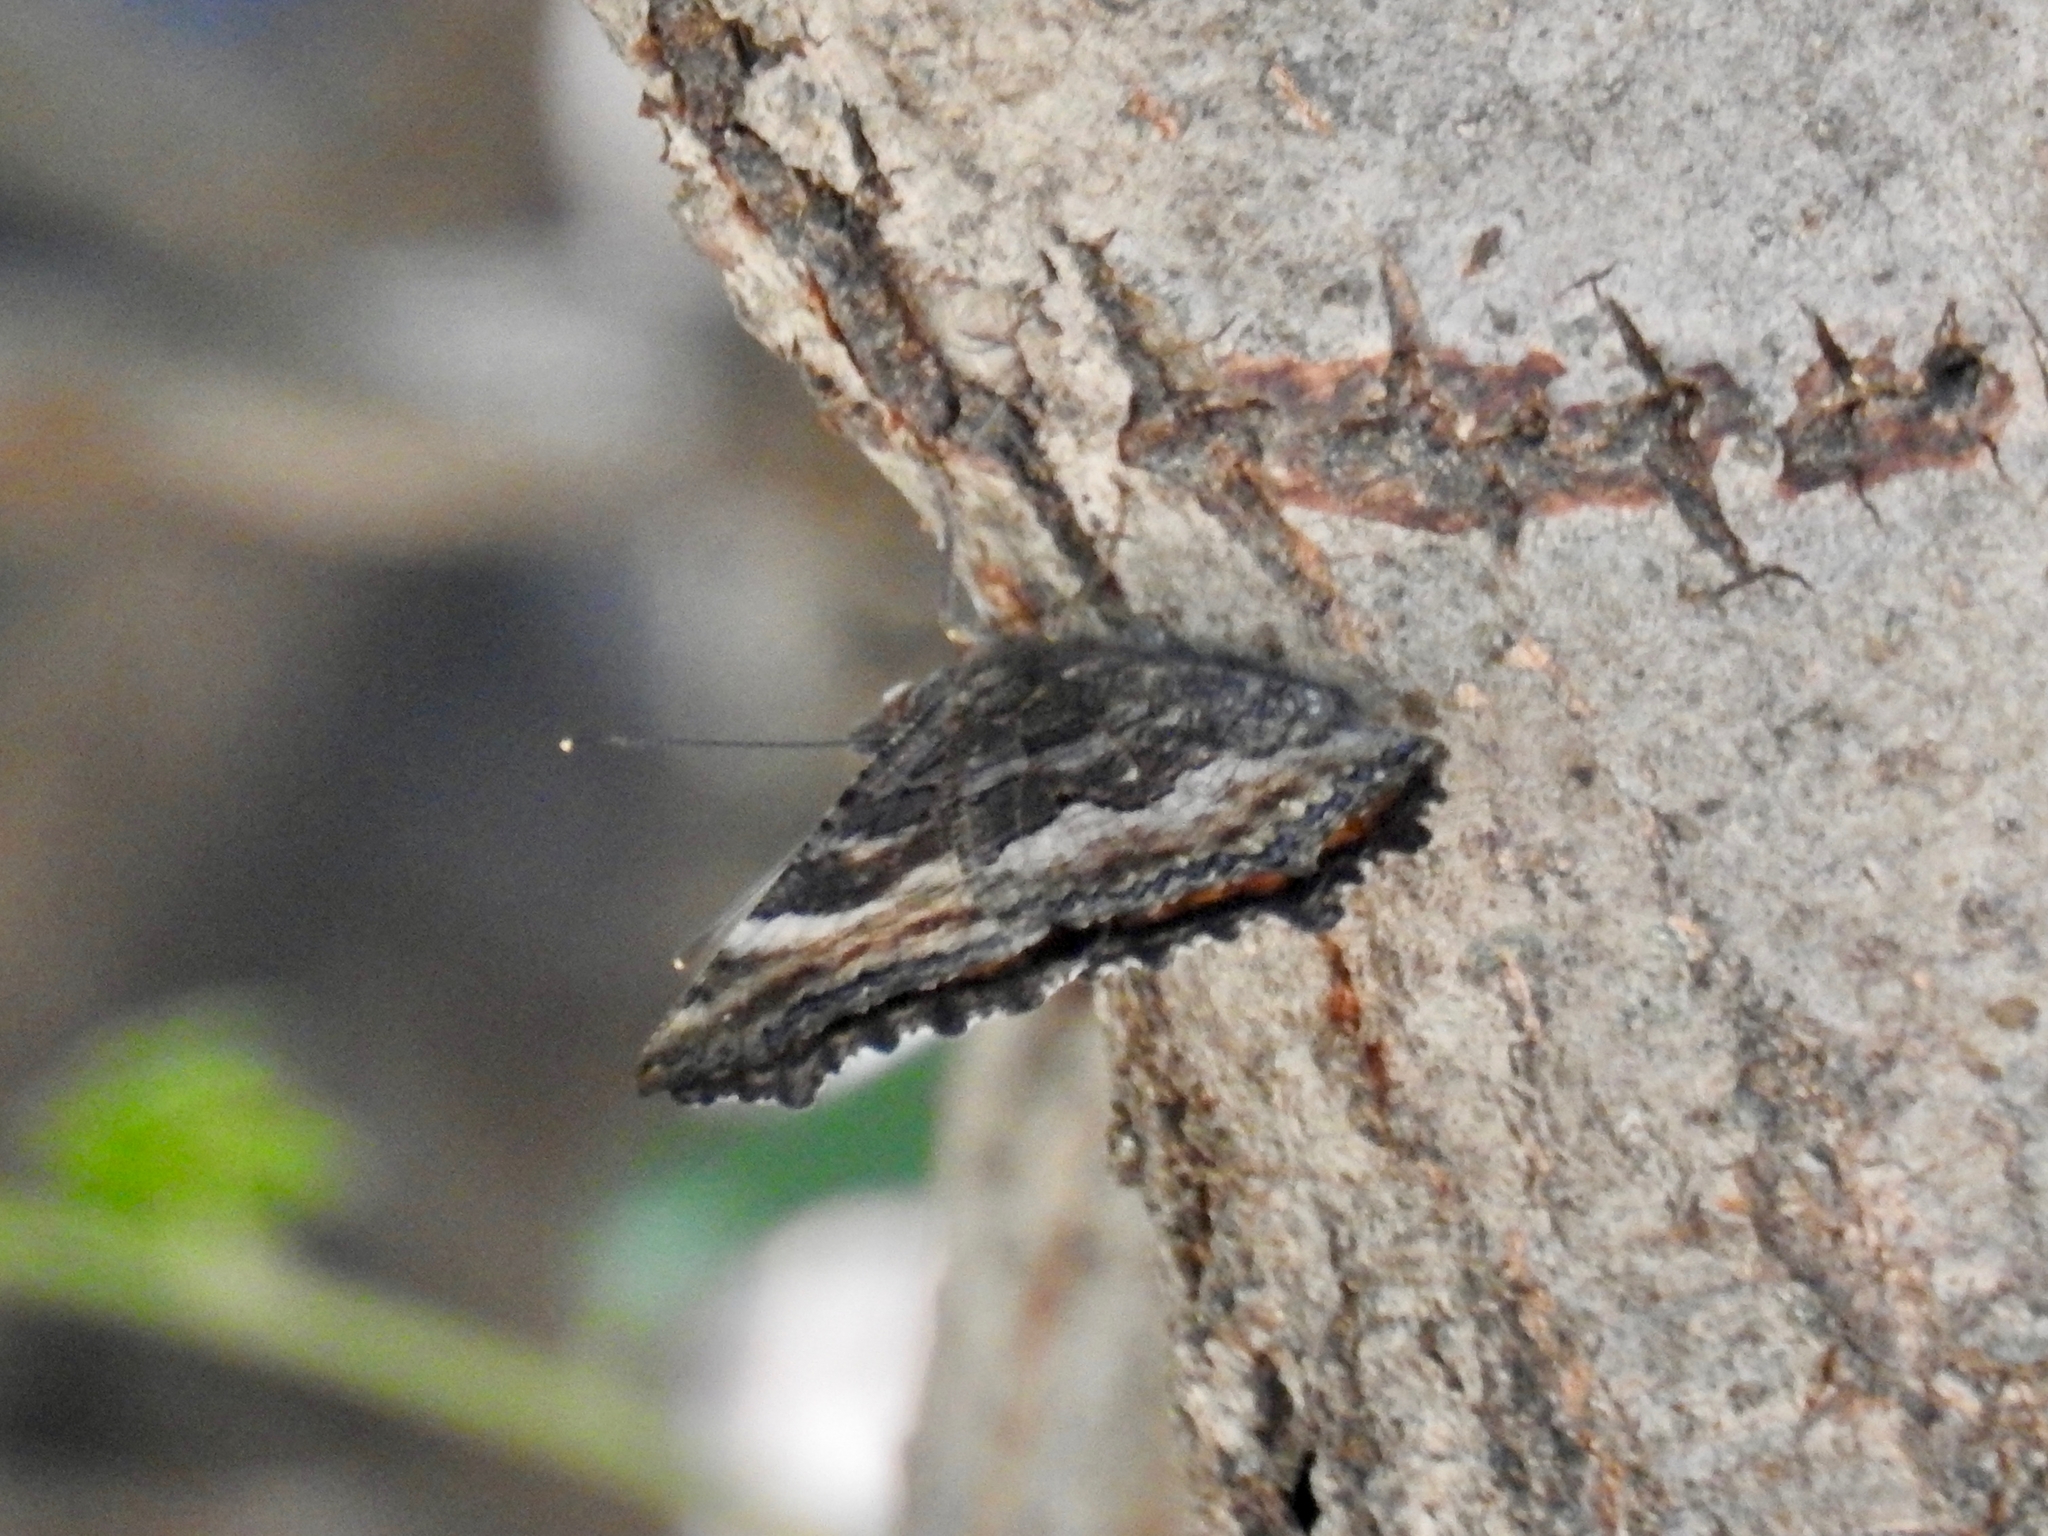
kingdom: Animalia
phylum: Arthropoda
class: Insecta
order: Lepidoptera
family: Nymphalidae
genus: Nymphalis
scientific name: Nymphalis californica
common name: California tortoiseshell
